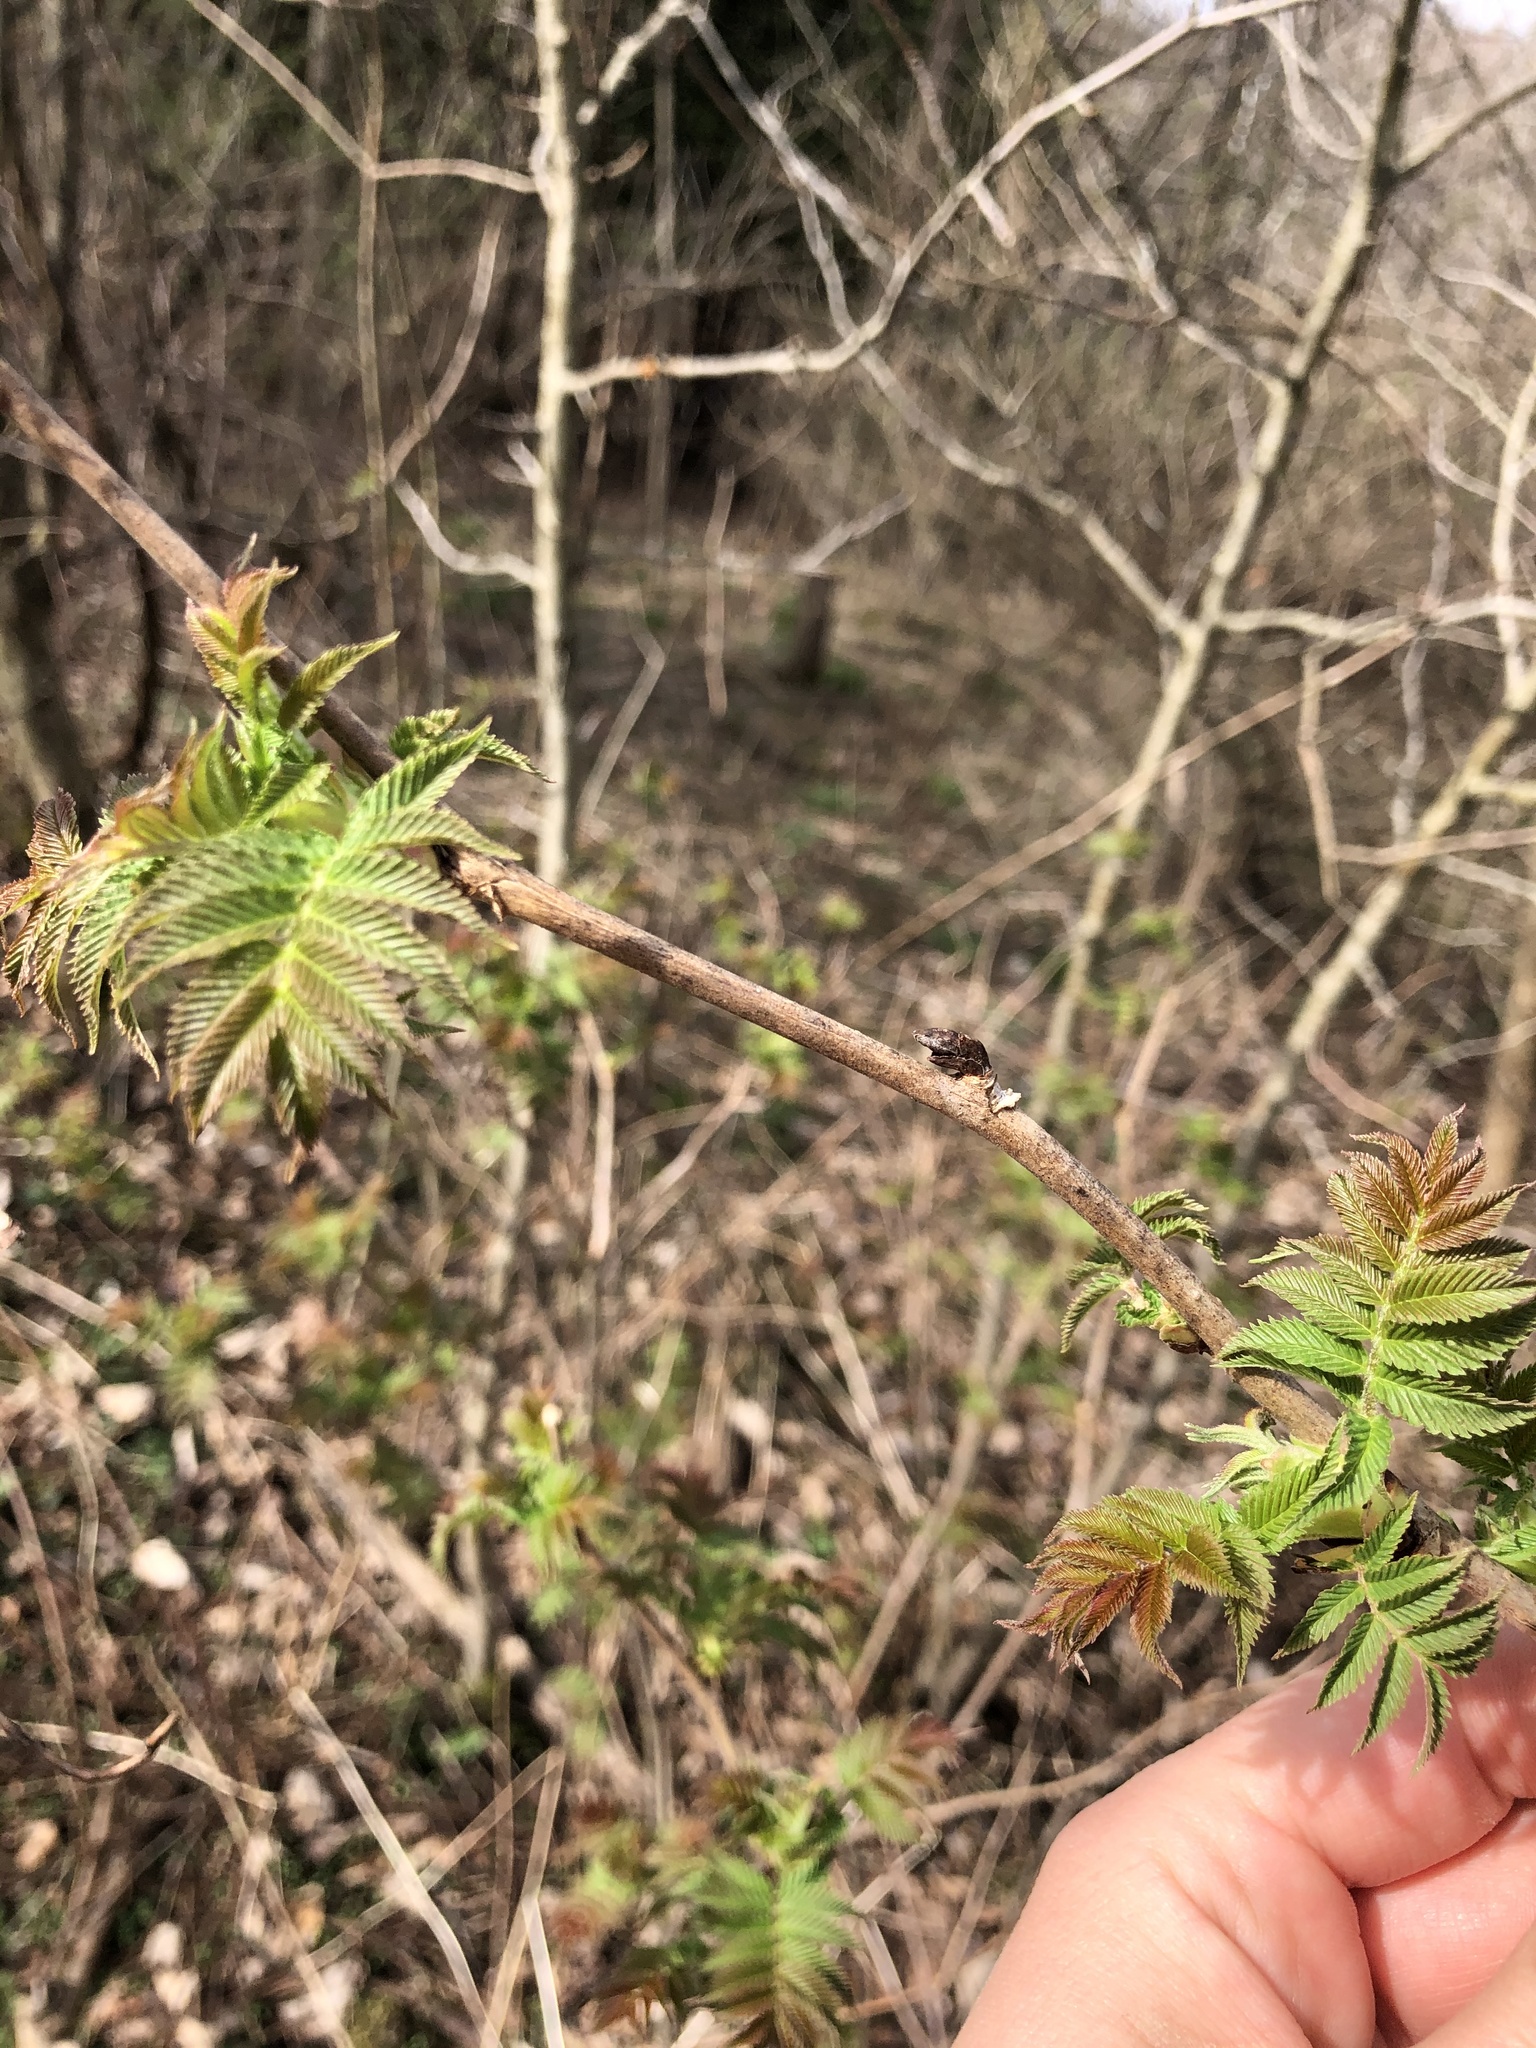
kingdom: Plantae
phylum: Tracheophyta
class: Magnoliopsida
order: Rosales
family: Rosaceae
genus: Sorbaria
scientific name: Sorbaria sorbifolia
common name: False spiraea
